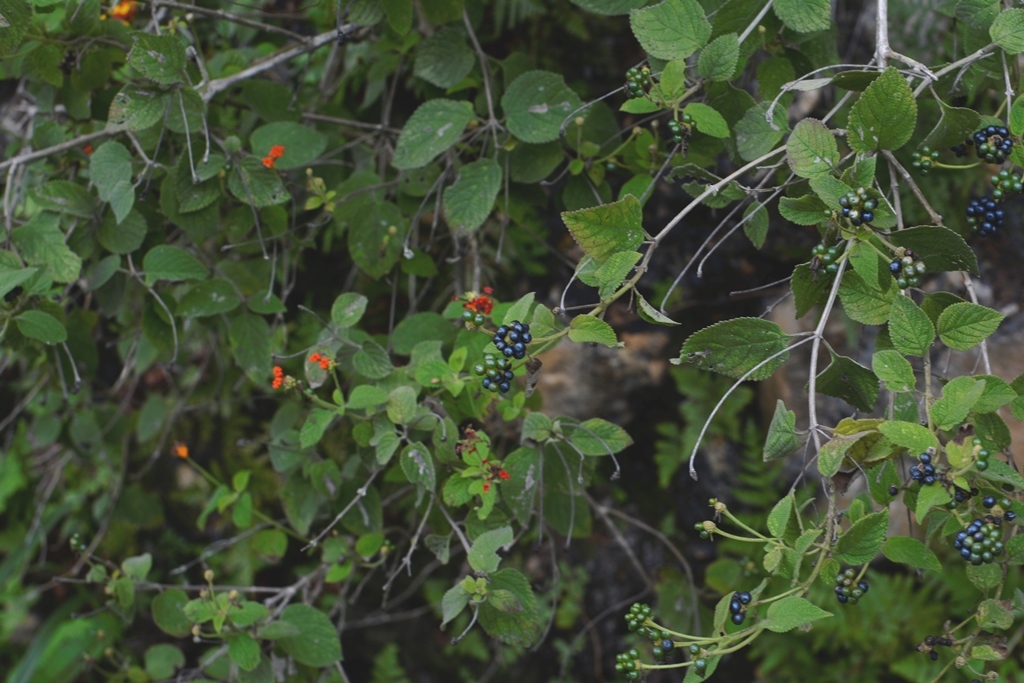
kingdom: Plantae
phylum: Tracheophyta
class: Magnoliopsida
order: Lamiales
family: Verbenaceae
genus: Lantana
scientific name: Lantana camara
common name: Lantana
